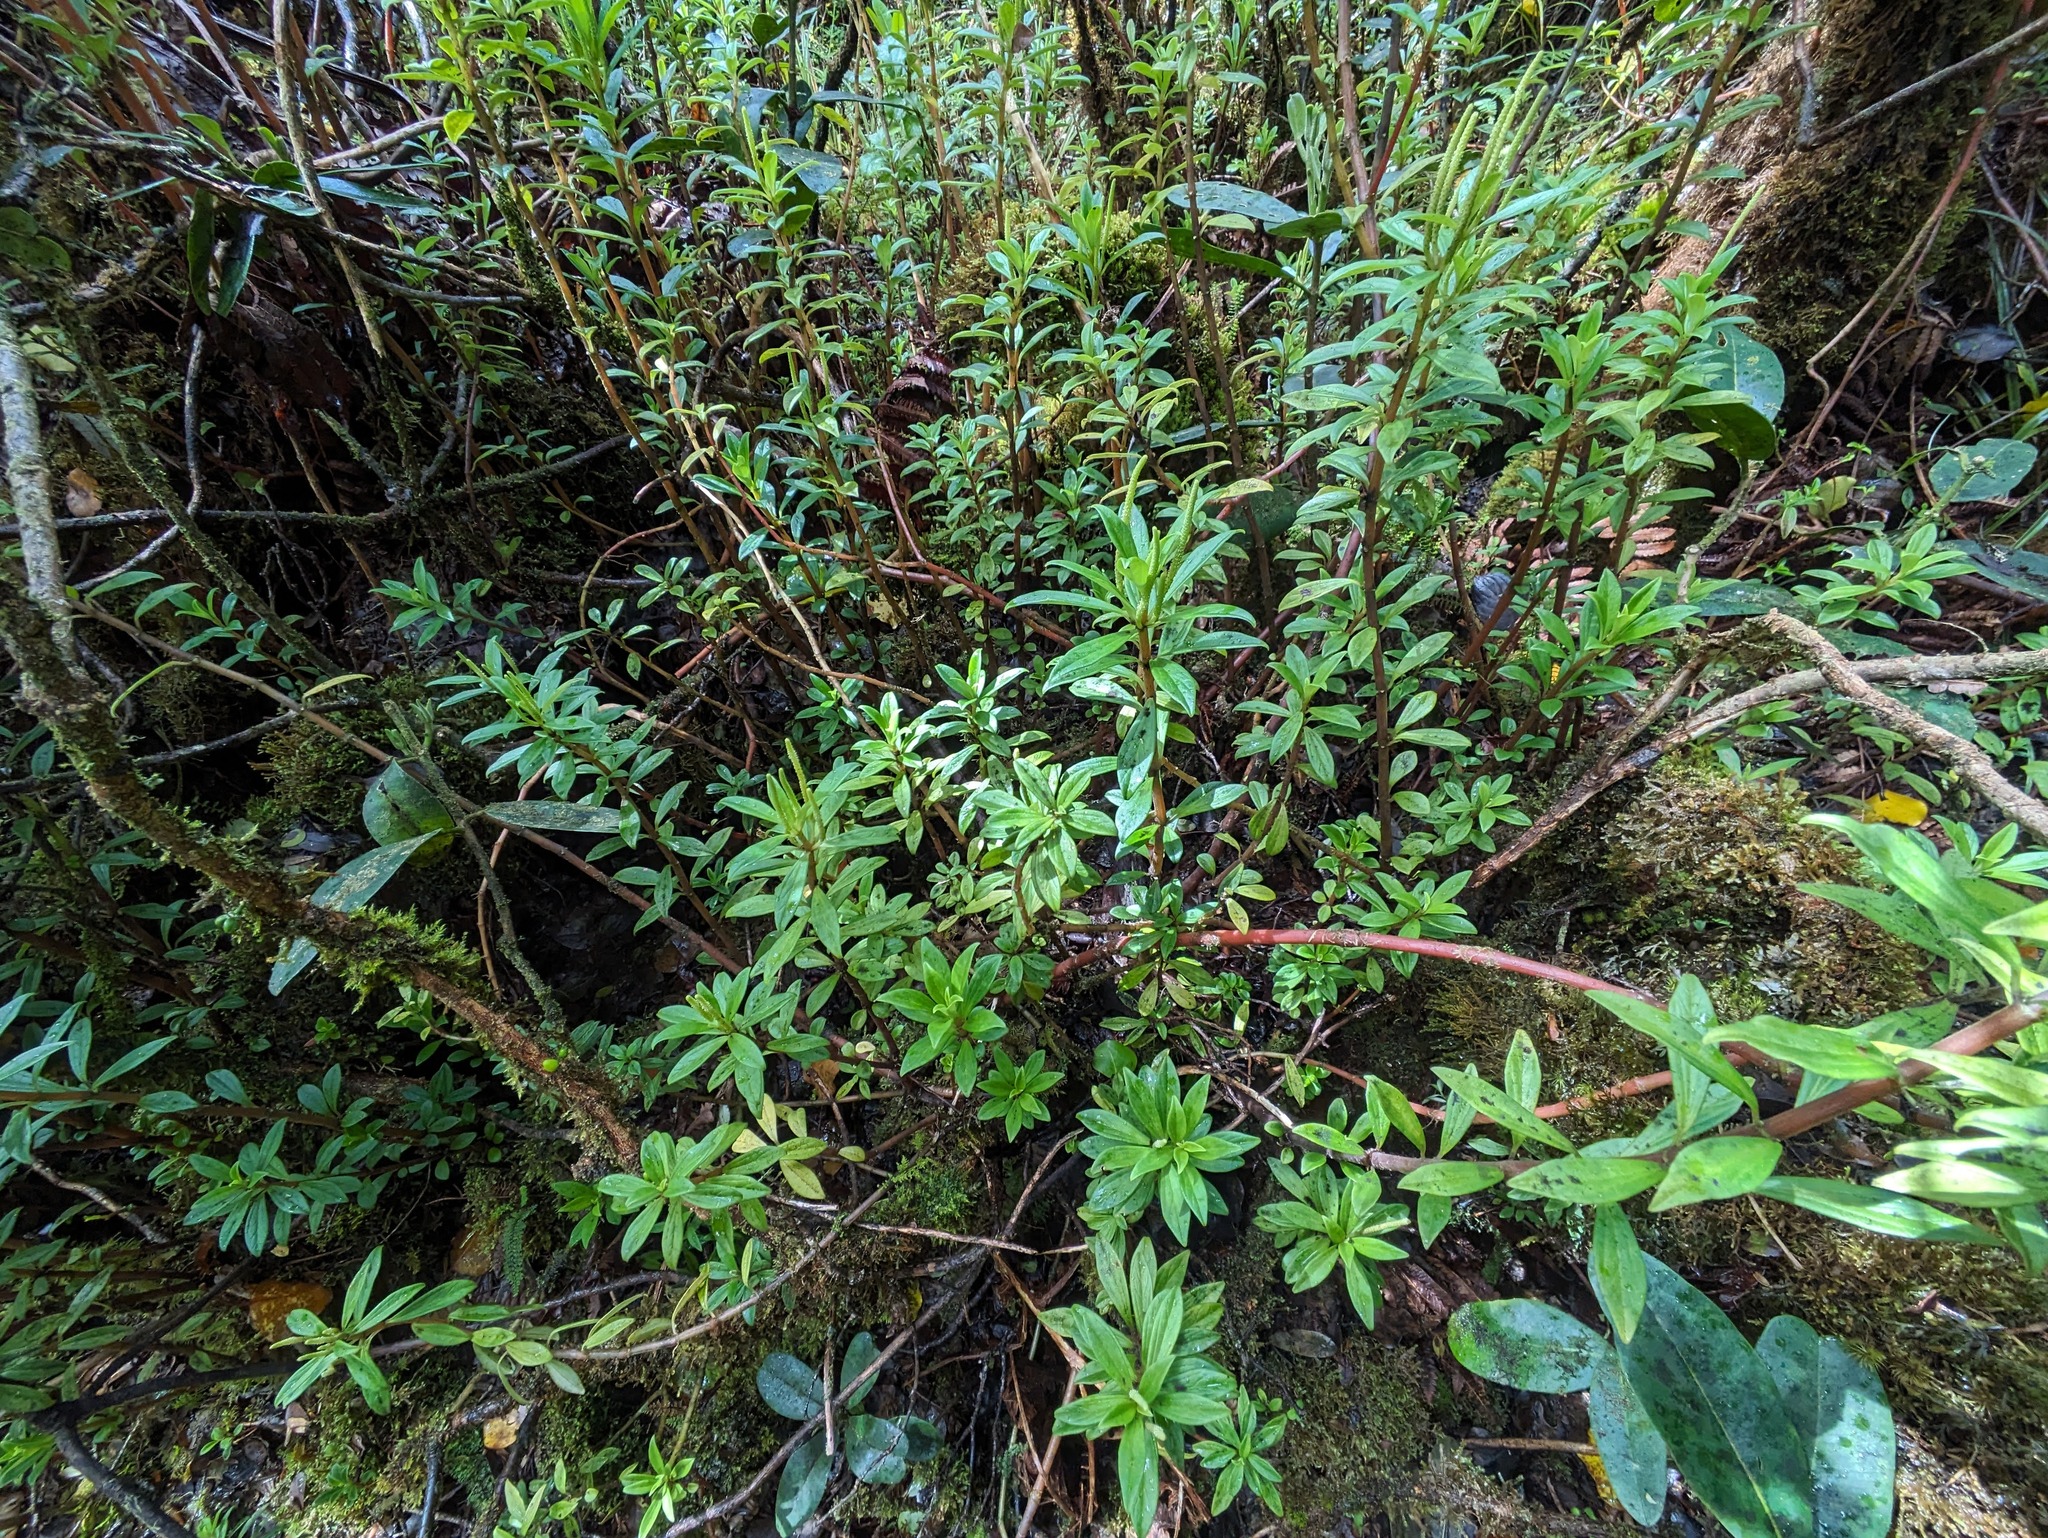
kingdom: Plantae
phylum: Tracheophyta
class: Magnoliopsida
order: Piperales
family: Piperaceae
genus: Peperomia
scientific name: Peperomia hesperomannii
